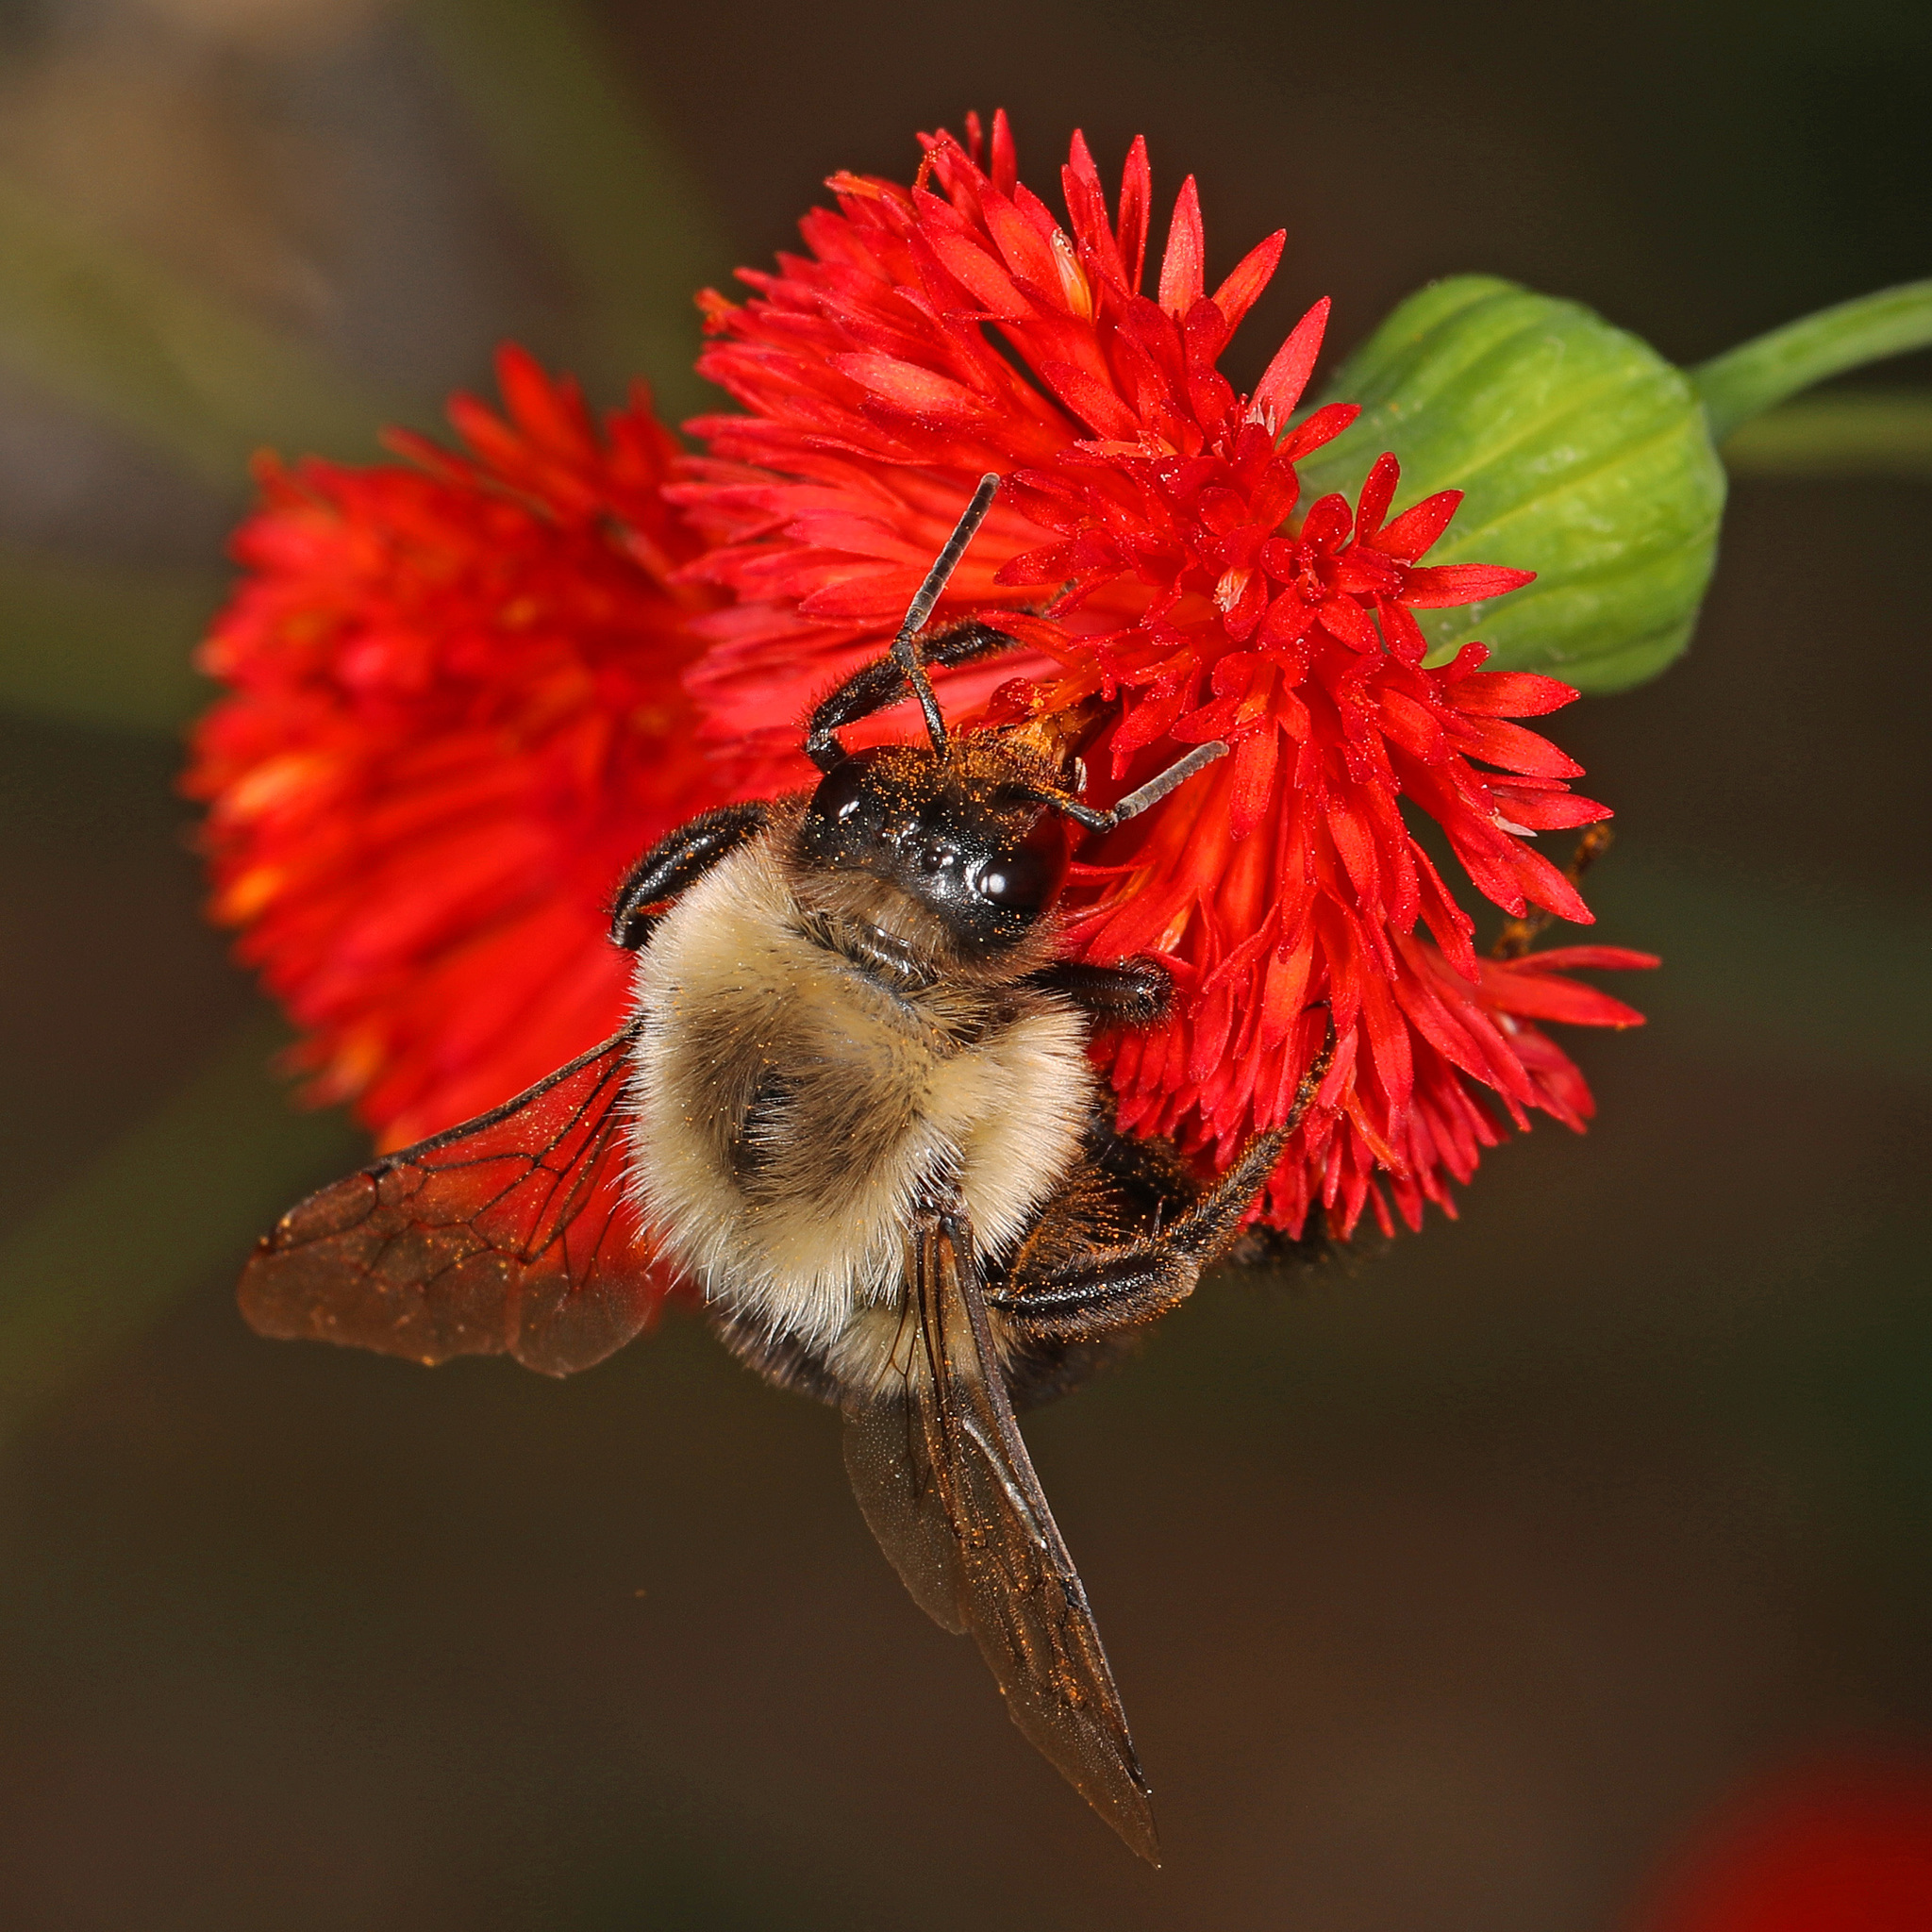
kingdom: Animalia
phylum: Arthropoda
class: Insecta
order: Hymenoptera
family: Apidae
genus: Bombus
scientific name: Bombus impatiens
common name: Common eastern bumble bee
